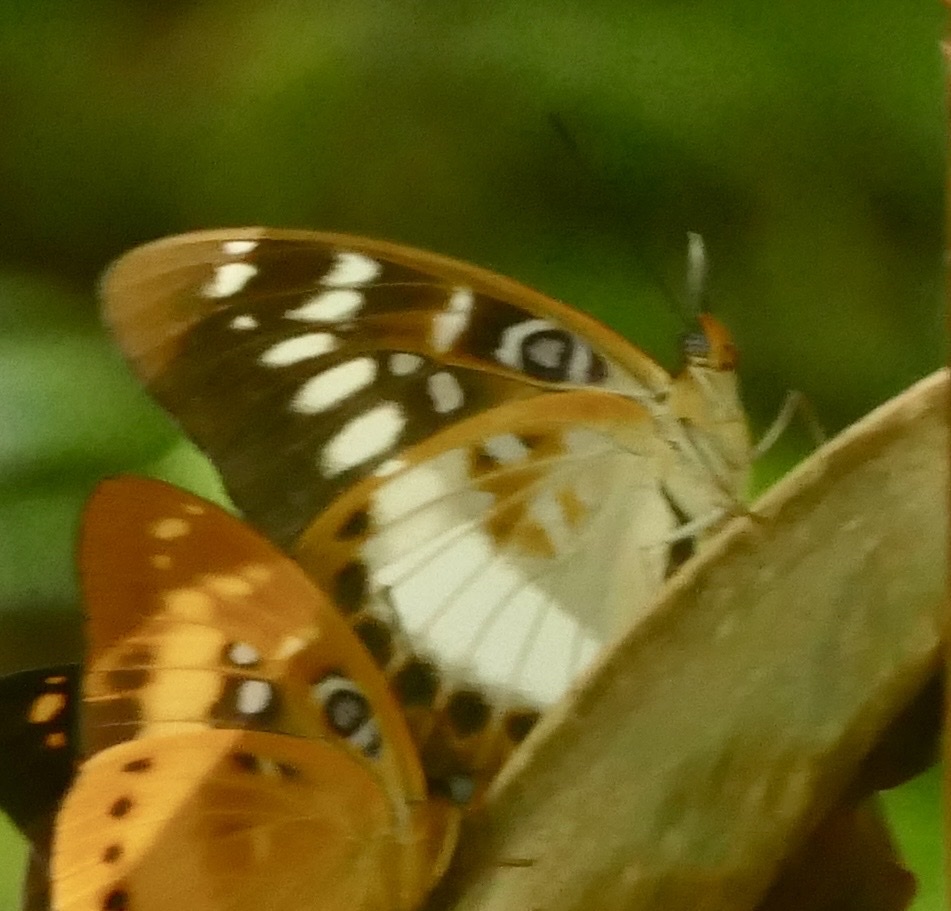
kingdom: Animalia
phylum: Arthropoda
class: Insecta
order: Lepidoptera
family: Nymphalidae
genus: Lexias
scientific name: Lexias aeropa
